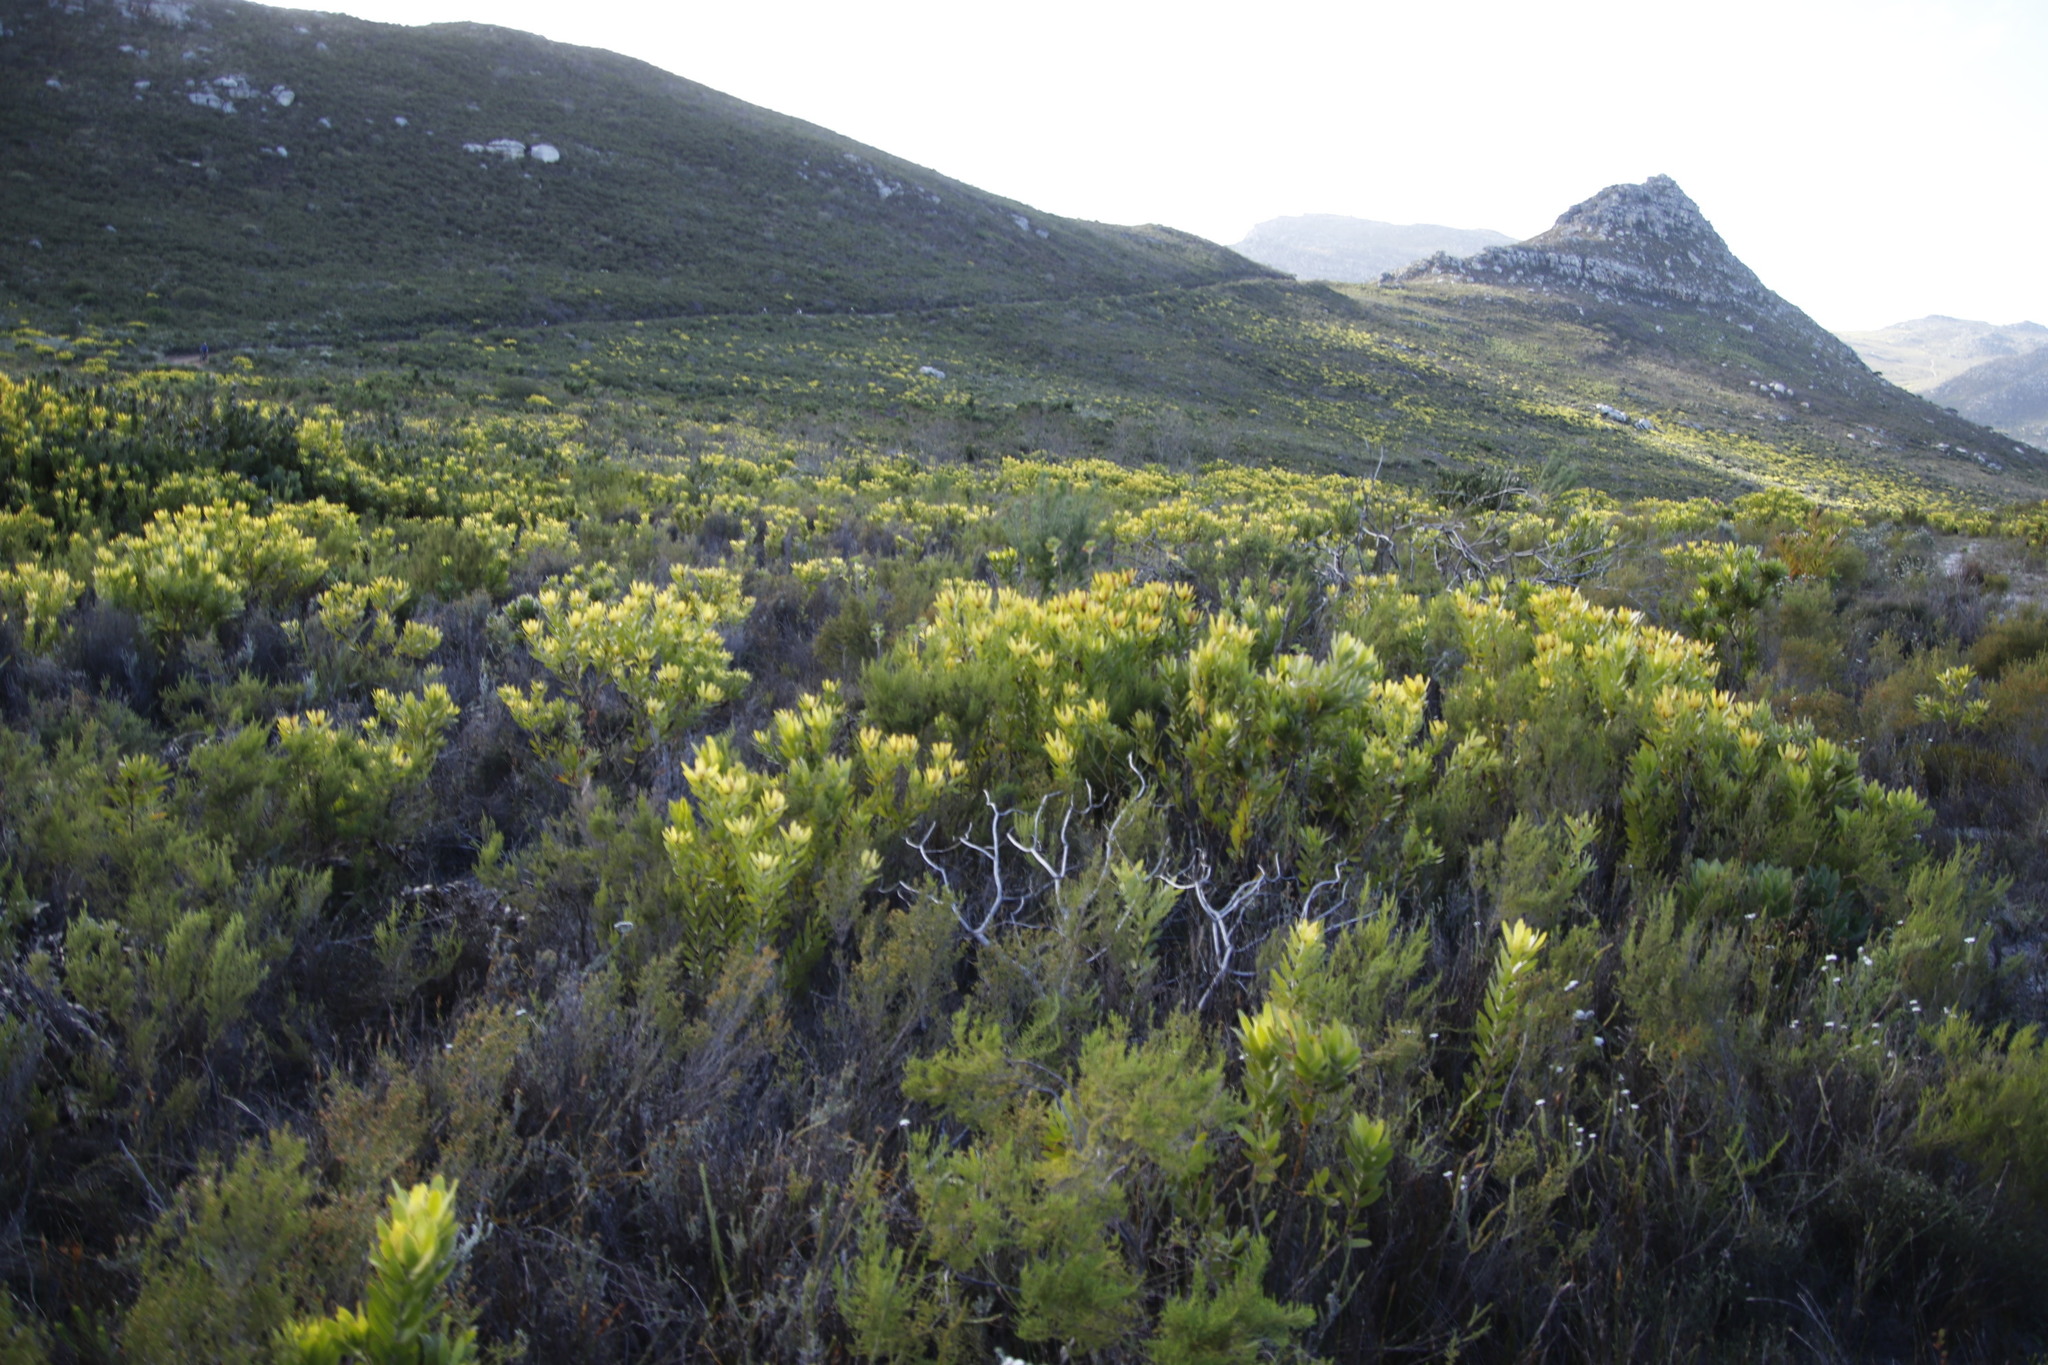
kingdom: Plantae
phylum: Tracheophyta
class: Magnoliopsida
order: Proteales
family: Proteaceae
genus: Leucadendron
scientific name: Leucadendron laureolum
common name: Golden sunshinebush
